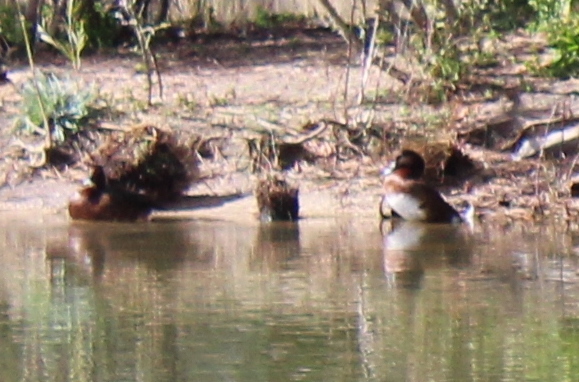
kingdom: Animalia
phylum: Chordata
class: Aves
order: Anseriformes
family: Anatidae
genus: Aythya
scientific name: Aythya australis
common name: Hardhead
